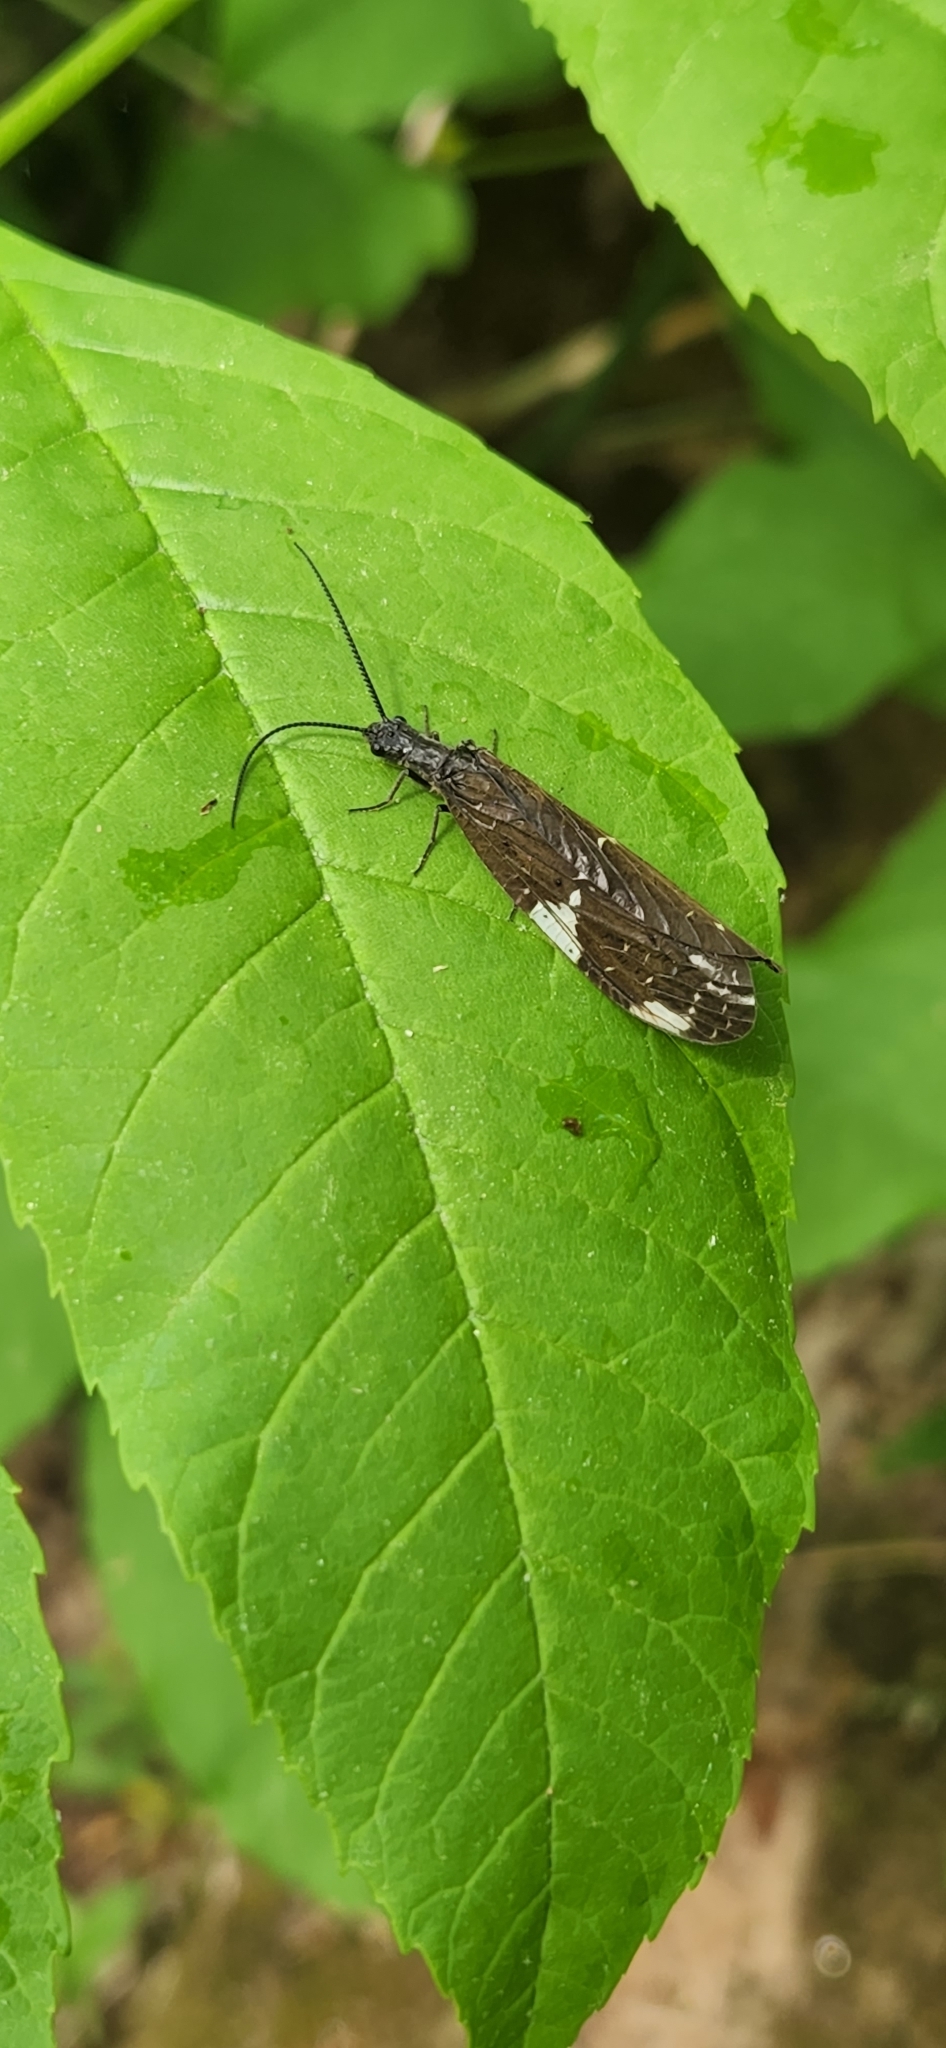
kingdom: Animalia
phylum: Arthropoda
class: Insecta
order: Megaloptera
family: Corydalidae
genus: Nigronia
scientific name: Nigronia serricornis
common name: Serrate dark fishfly
